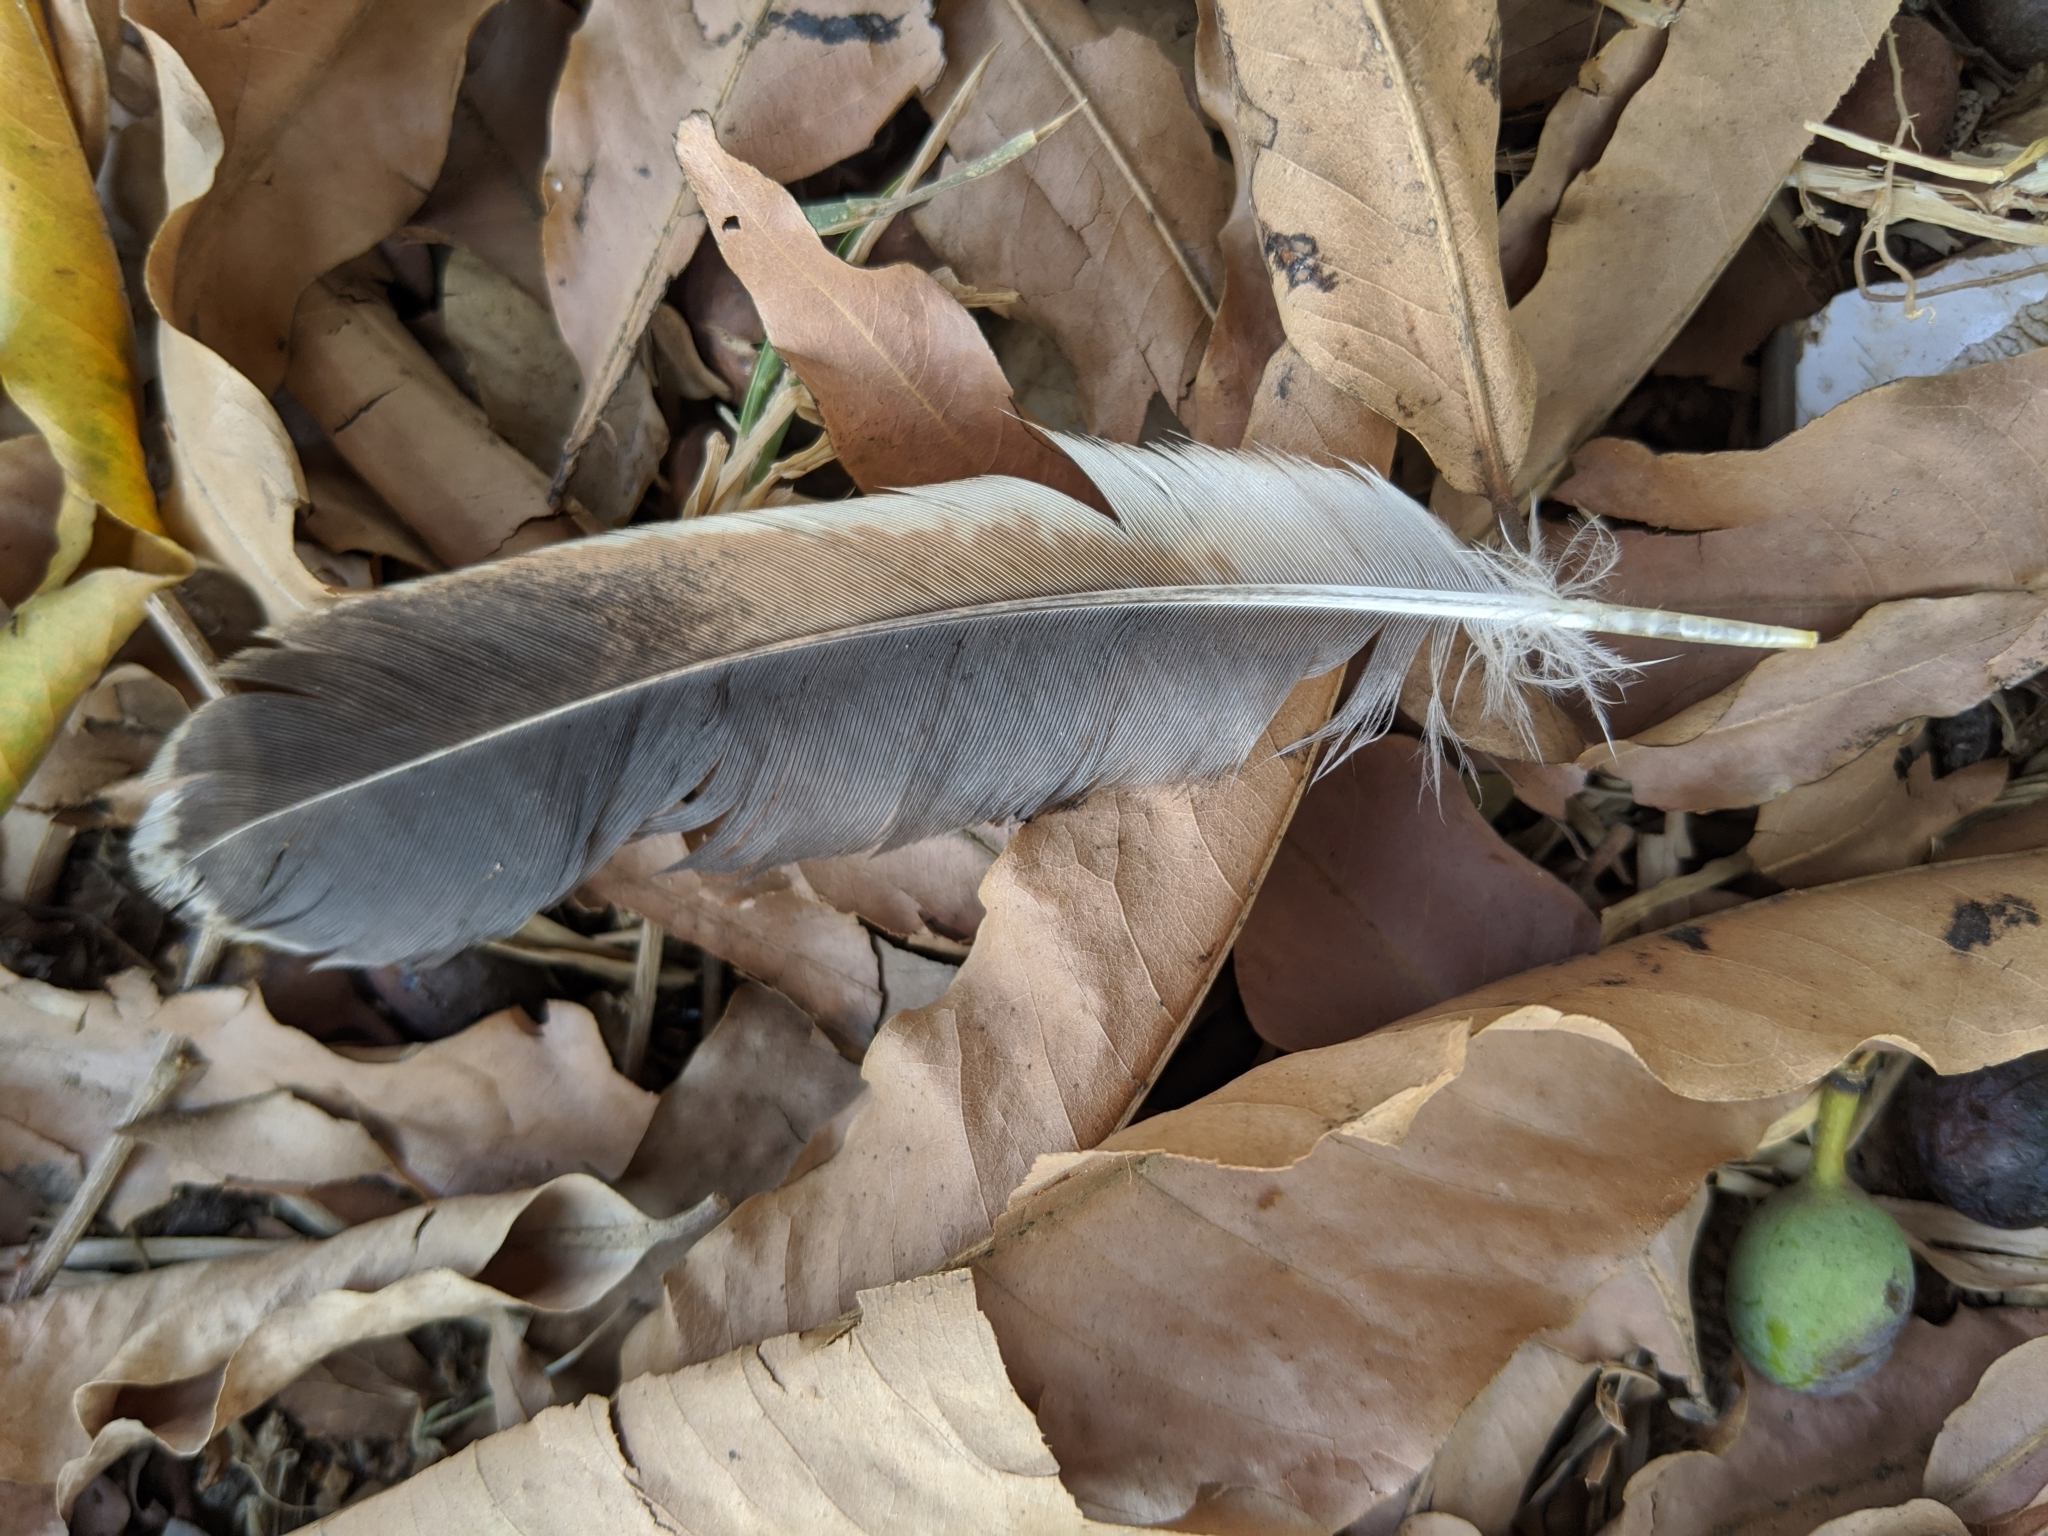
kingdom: Animalia
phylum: Chordata
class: Aves
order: Galliformes
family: Phasianidae
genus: Gallus
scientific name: Gallus gallus
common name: Red junglefowl
